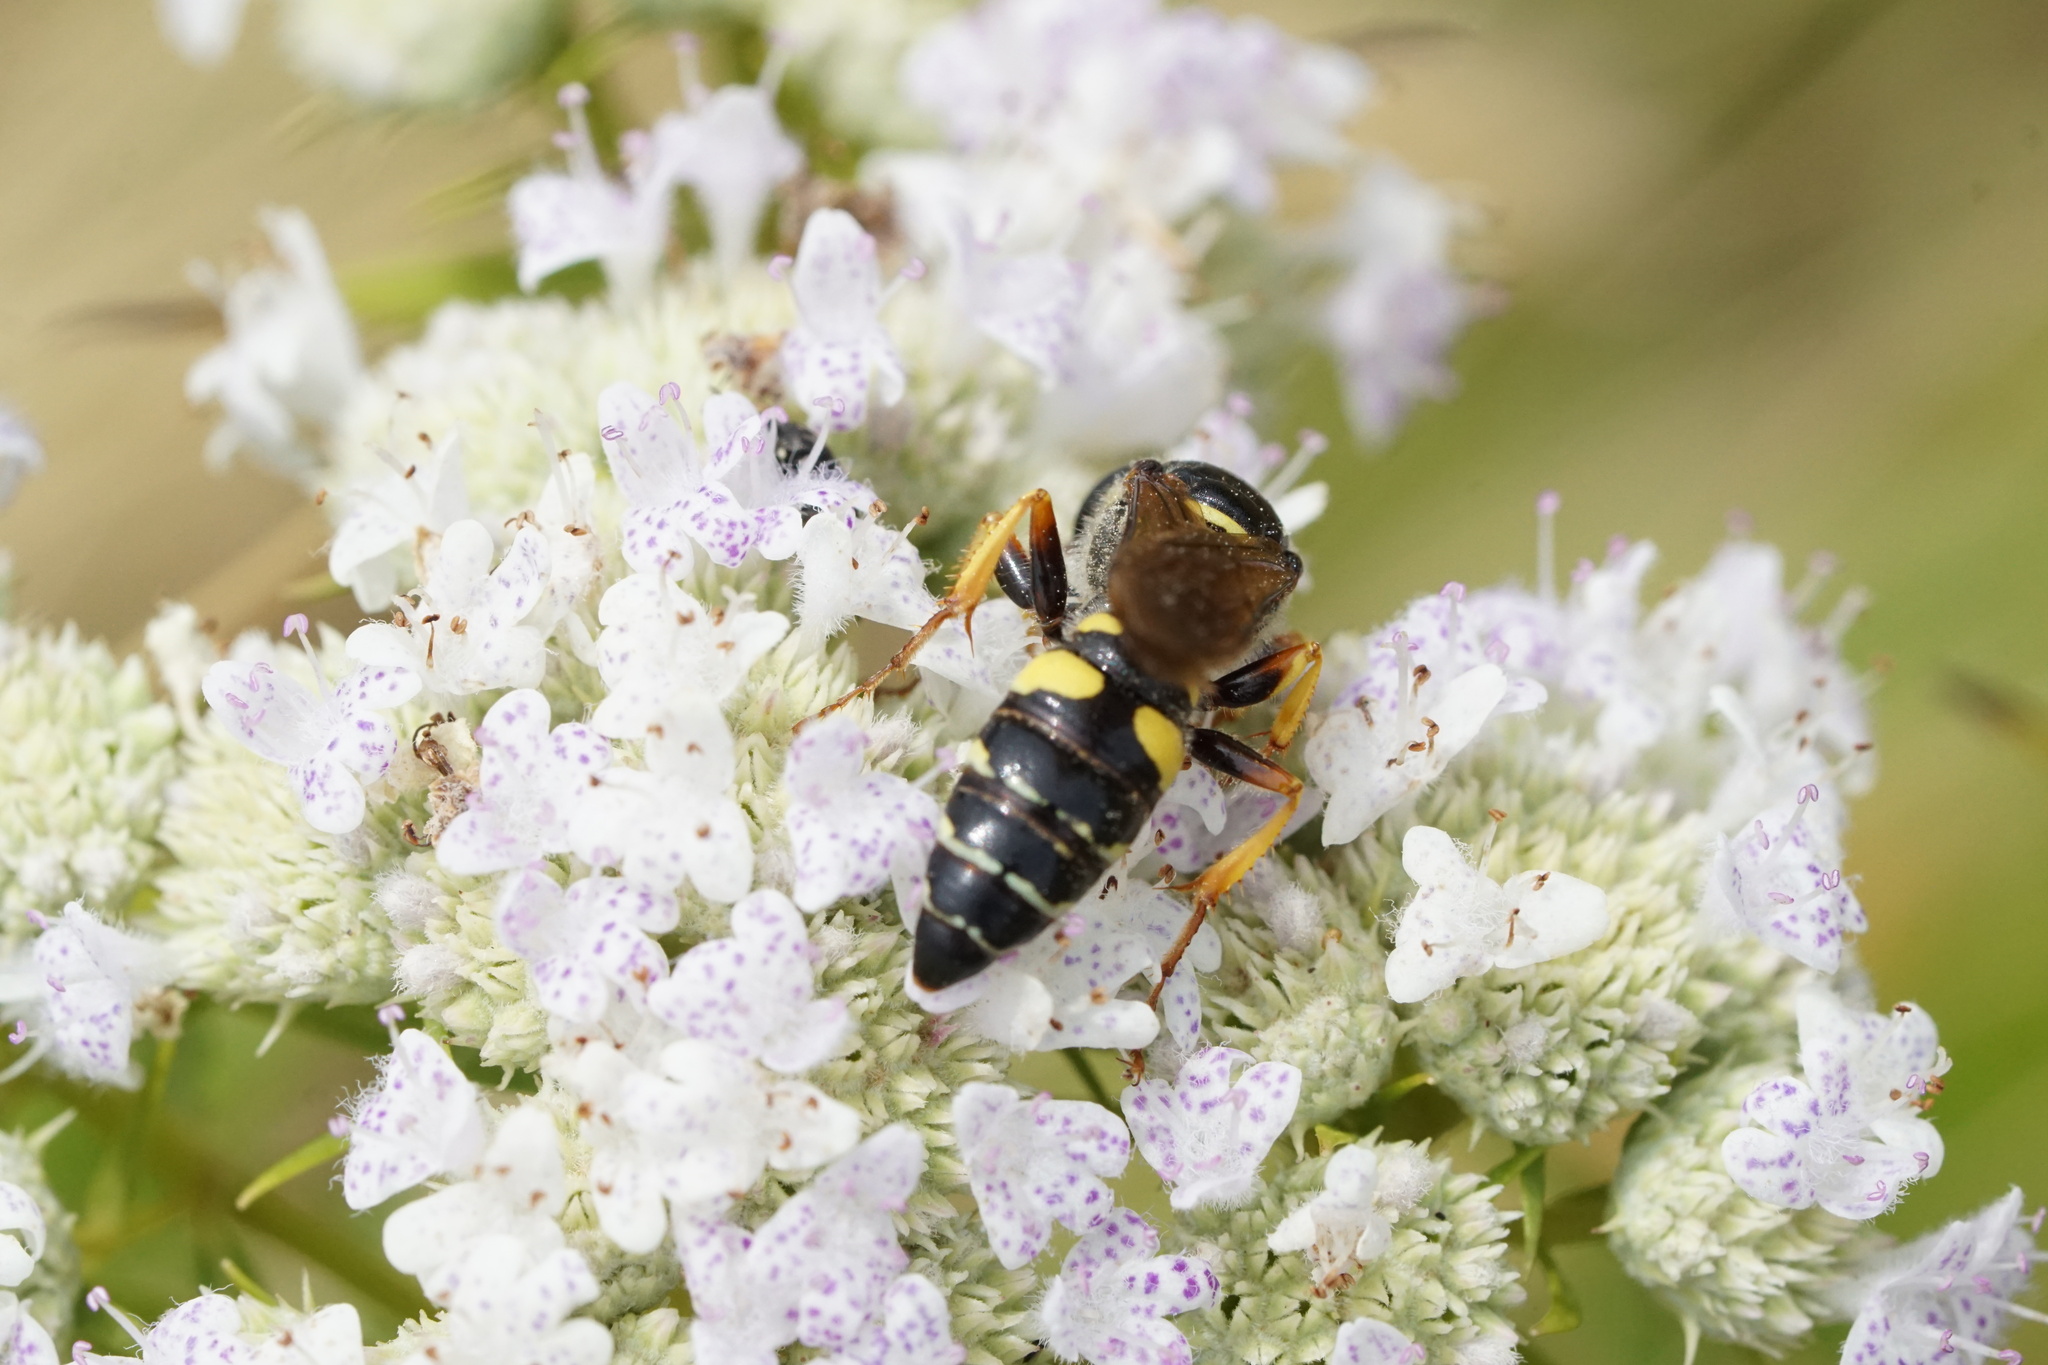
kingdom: Animalia
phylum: Arthropoda
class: Insecta
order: Hymenoptera
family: Crabronidae
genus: Philanthus
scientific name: Philanthus sanbornii
